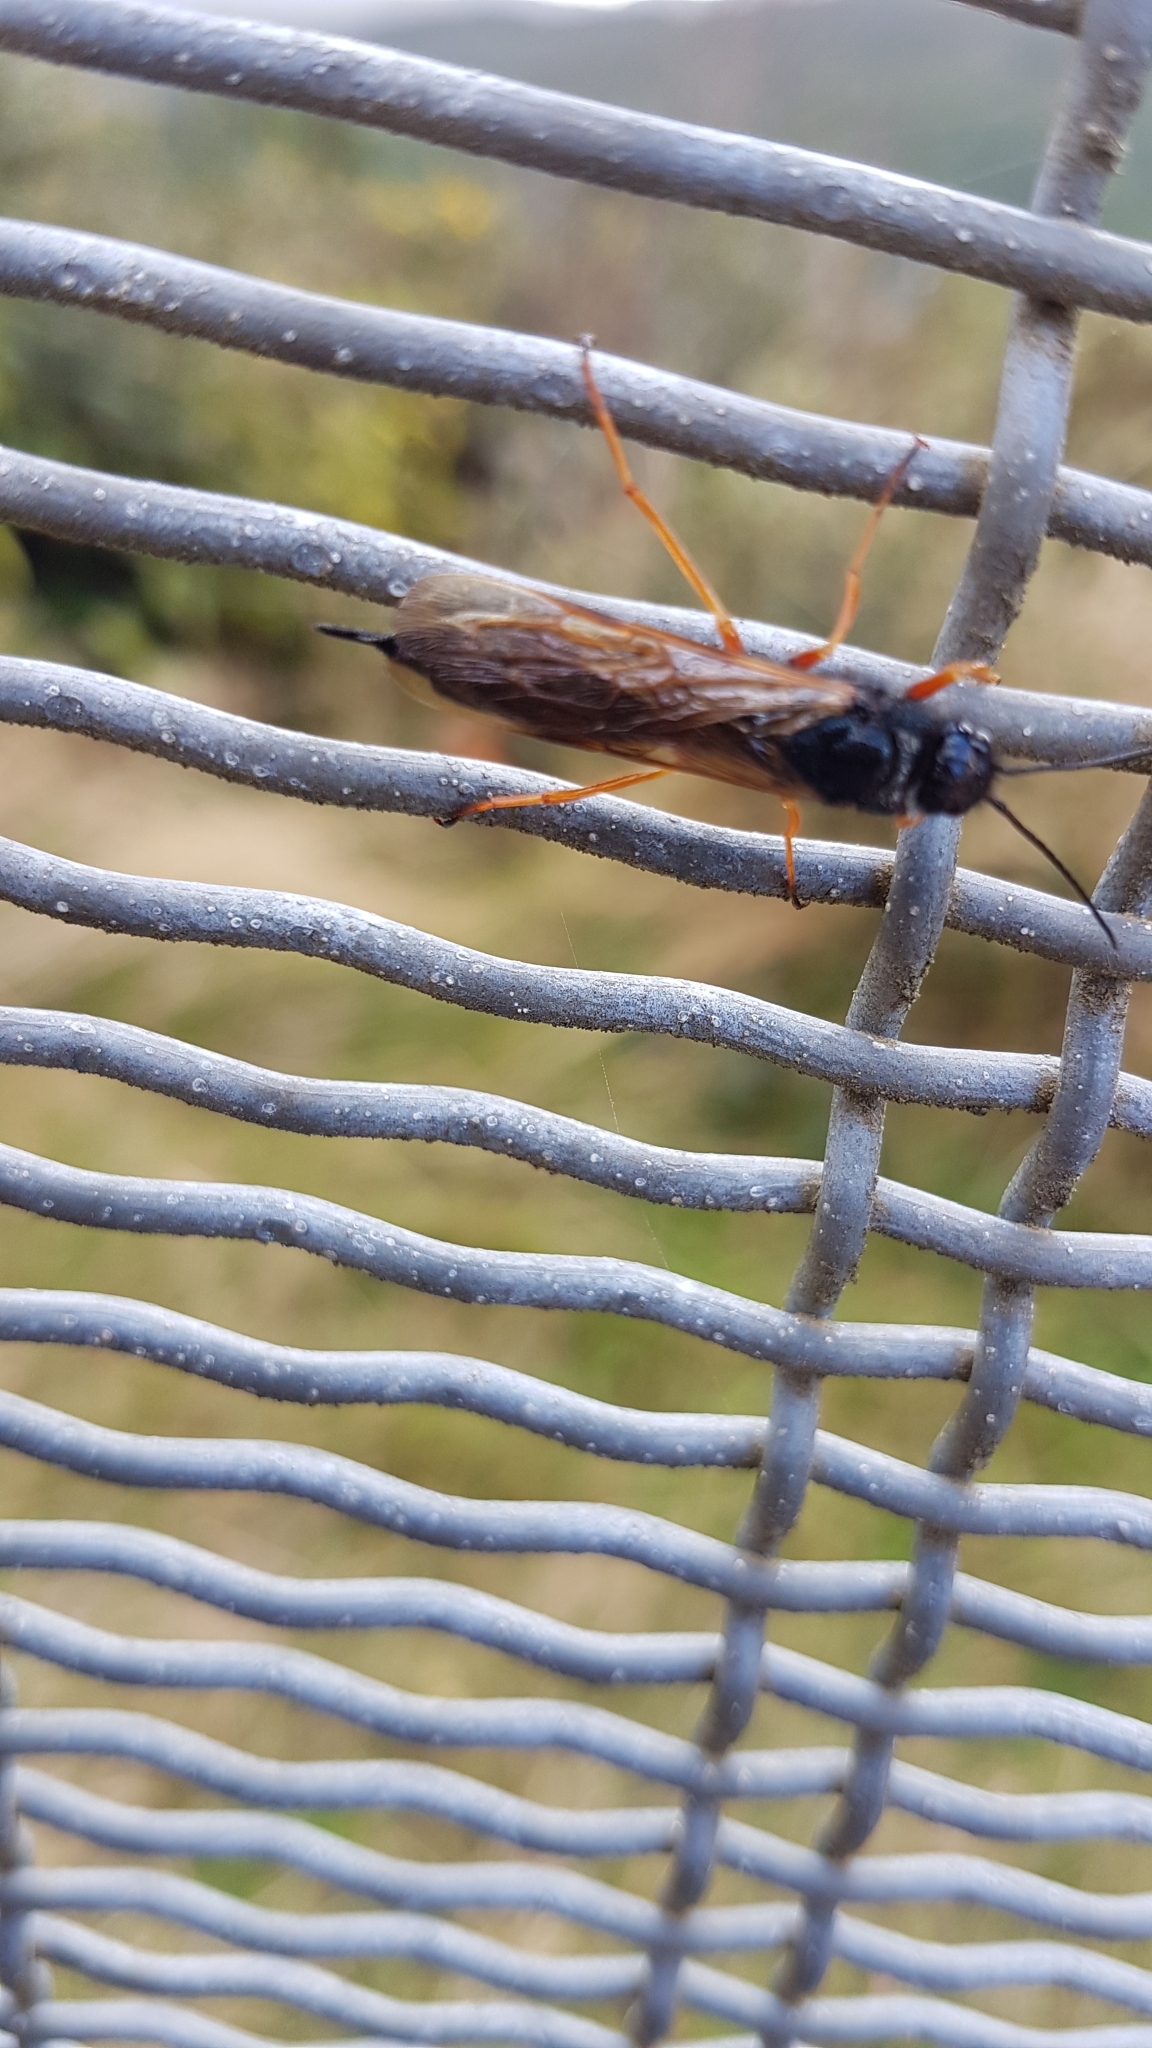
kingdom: Animalia
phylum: Arthropoda
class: Insecta
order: Hymenoptera
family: Siricidae
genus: Sirex
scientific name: Sirex noctilio
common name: Woodwasp
